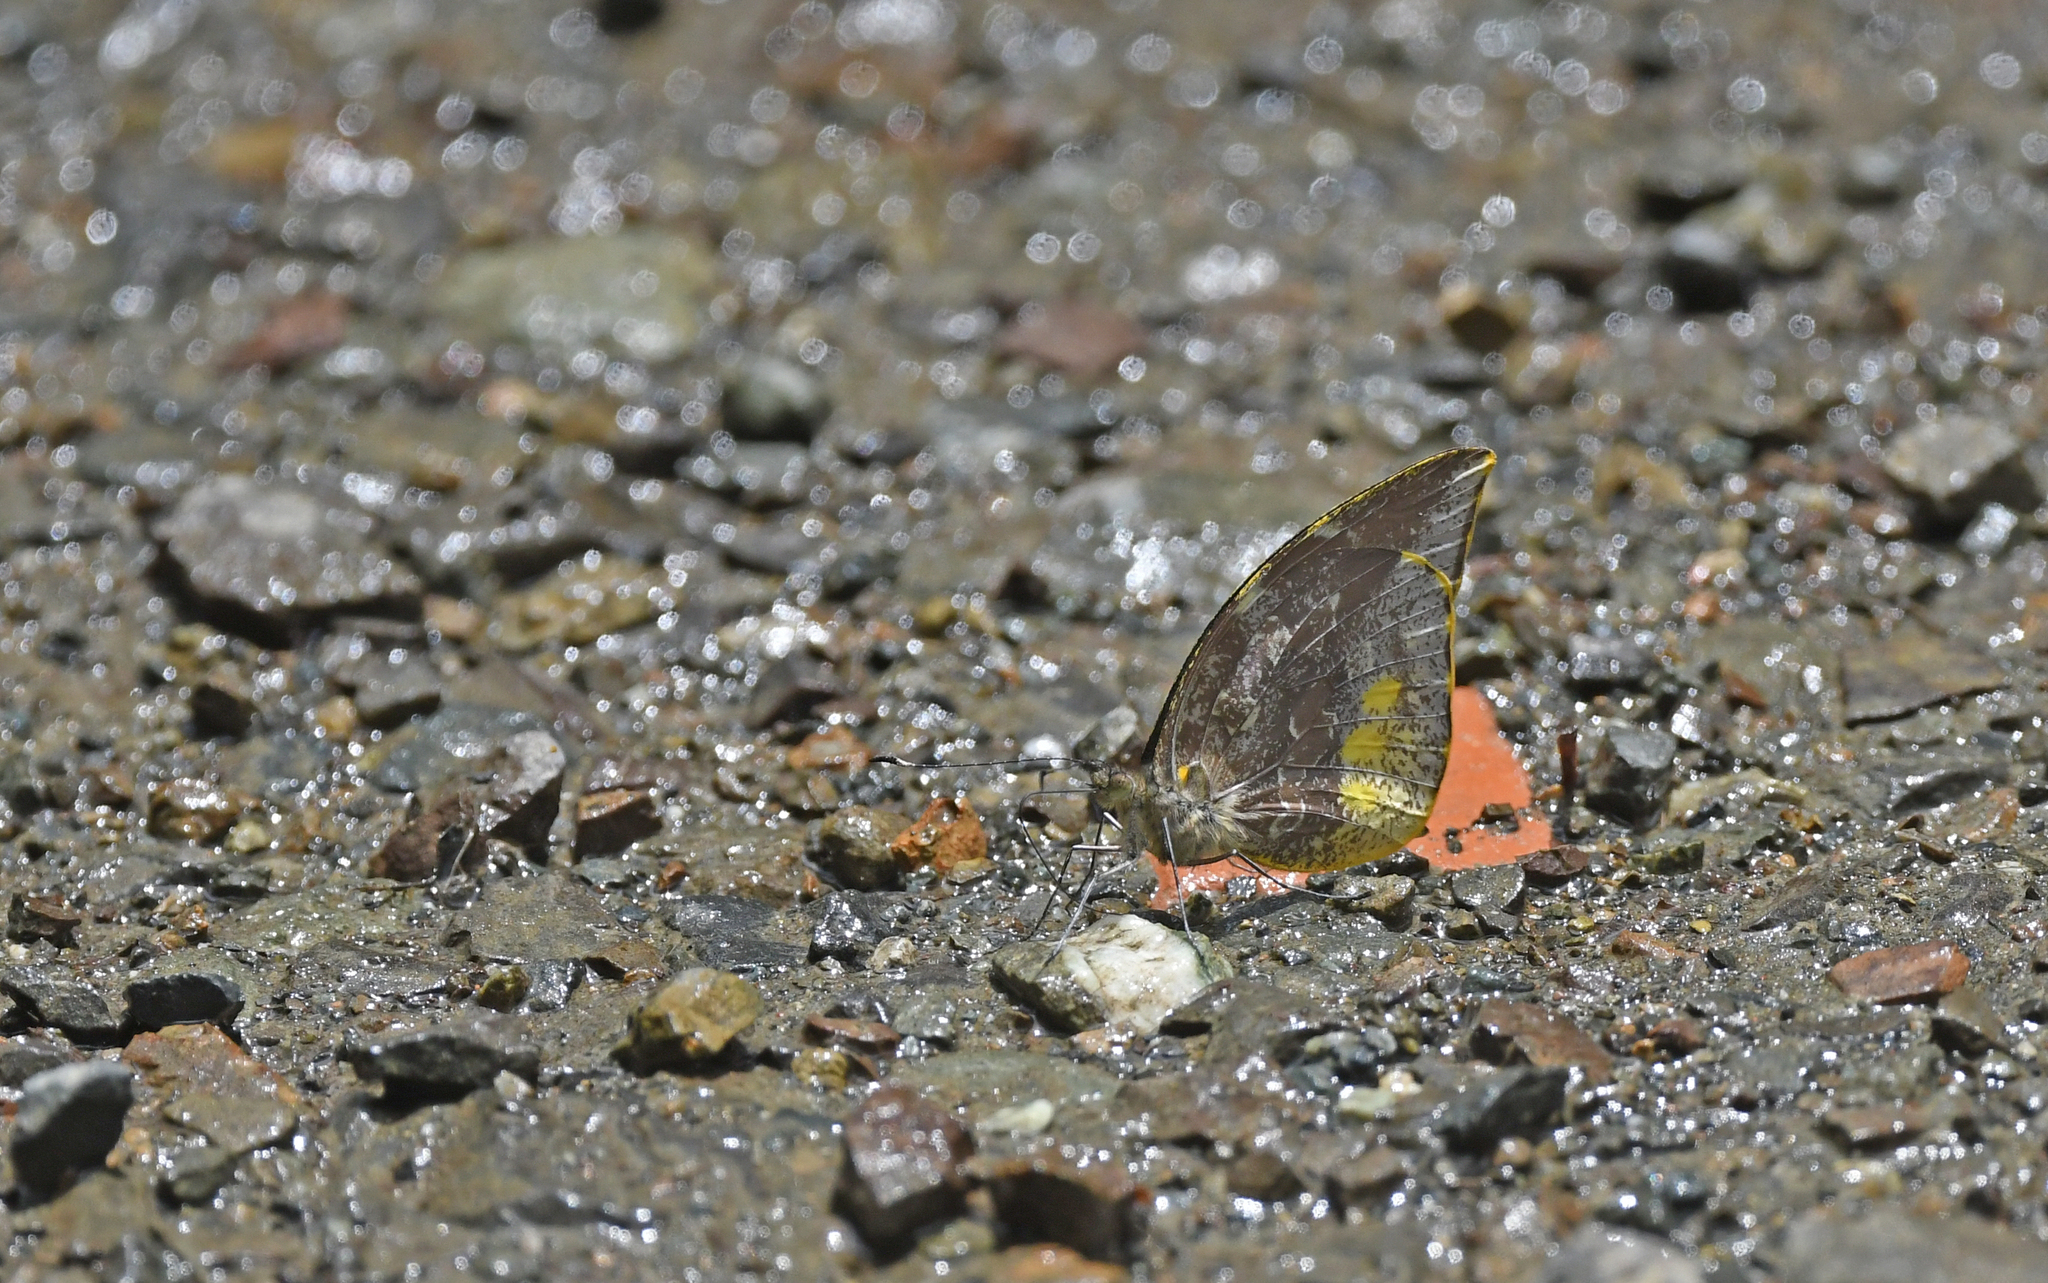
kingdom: Animalia
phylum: Arthropoda
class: Insecta
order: Lepidoptera
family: Pieridae
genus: Lieinix
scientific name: Lieinix nemesis
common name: Frosted mimic-white
